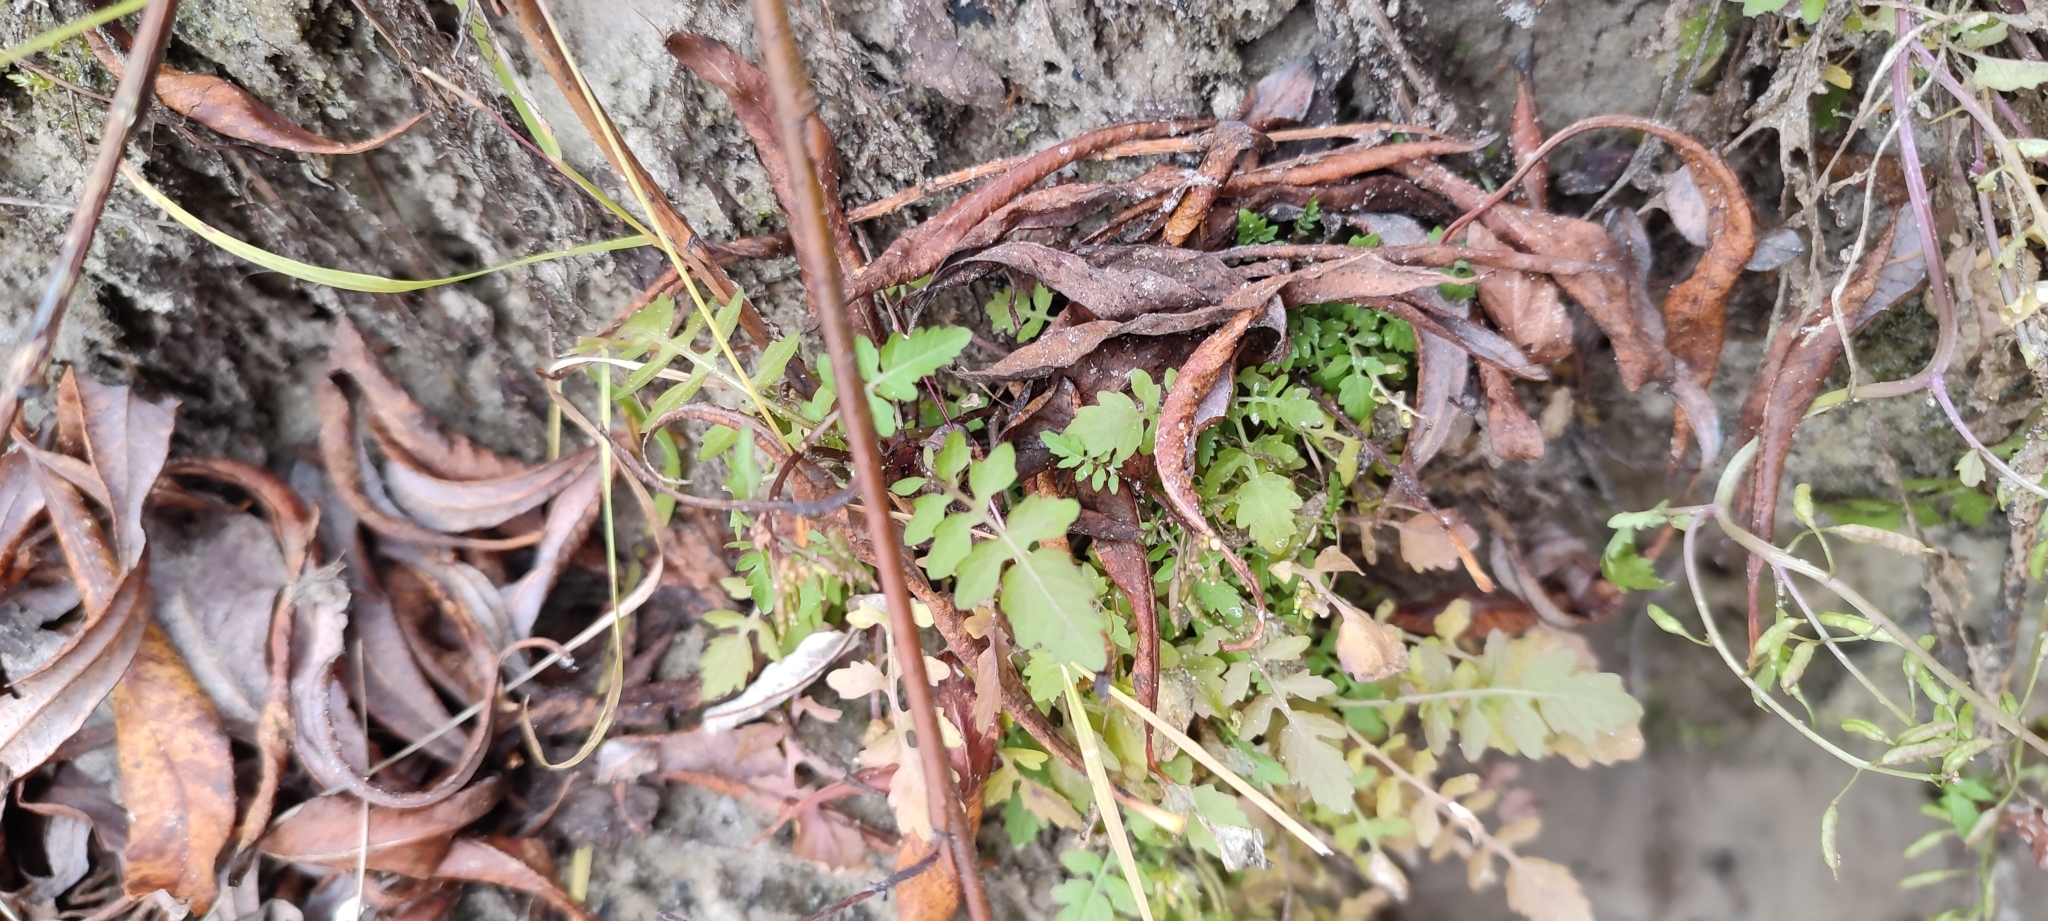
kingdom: Plantae
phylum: Tracheophyta
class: Magnoliopsida
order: Brassicales
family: Brassicaceae
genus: Rorippa
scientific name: Rorippa palustris
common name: Marsh yellow-cress
